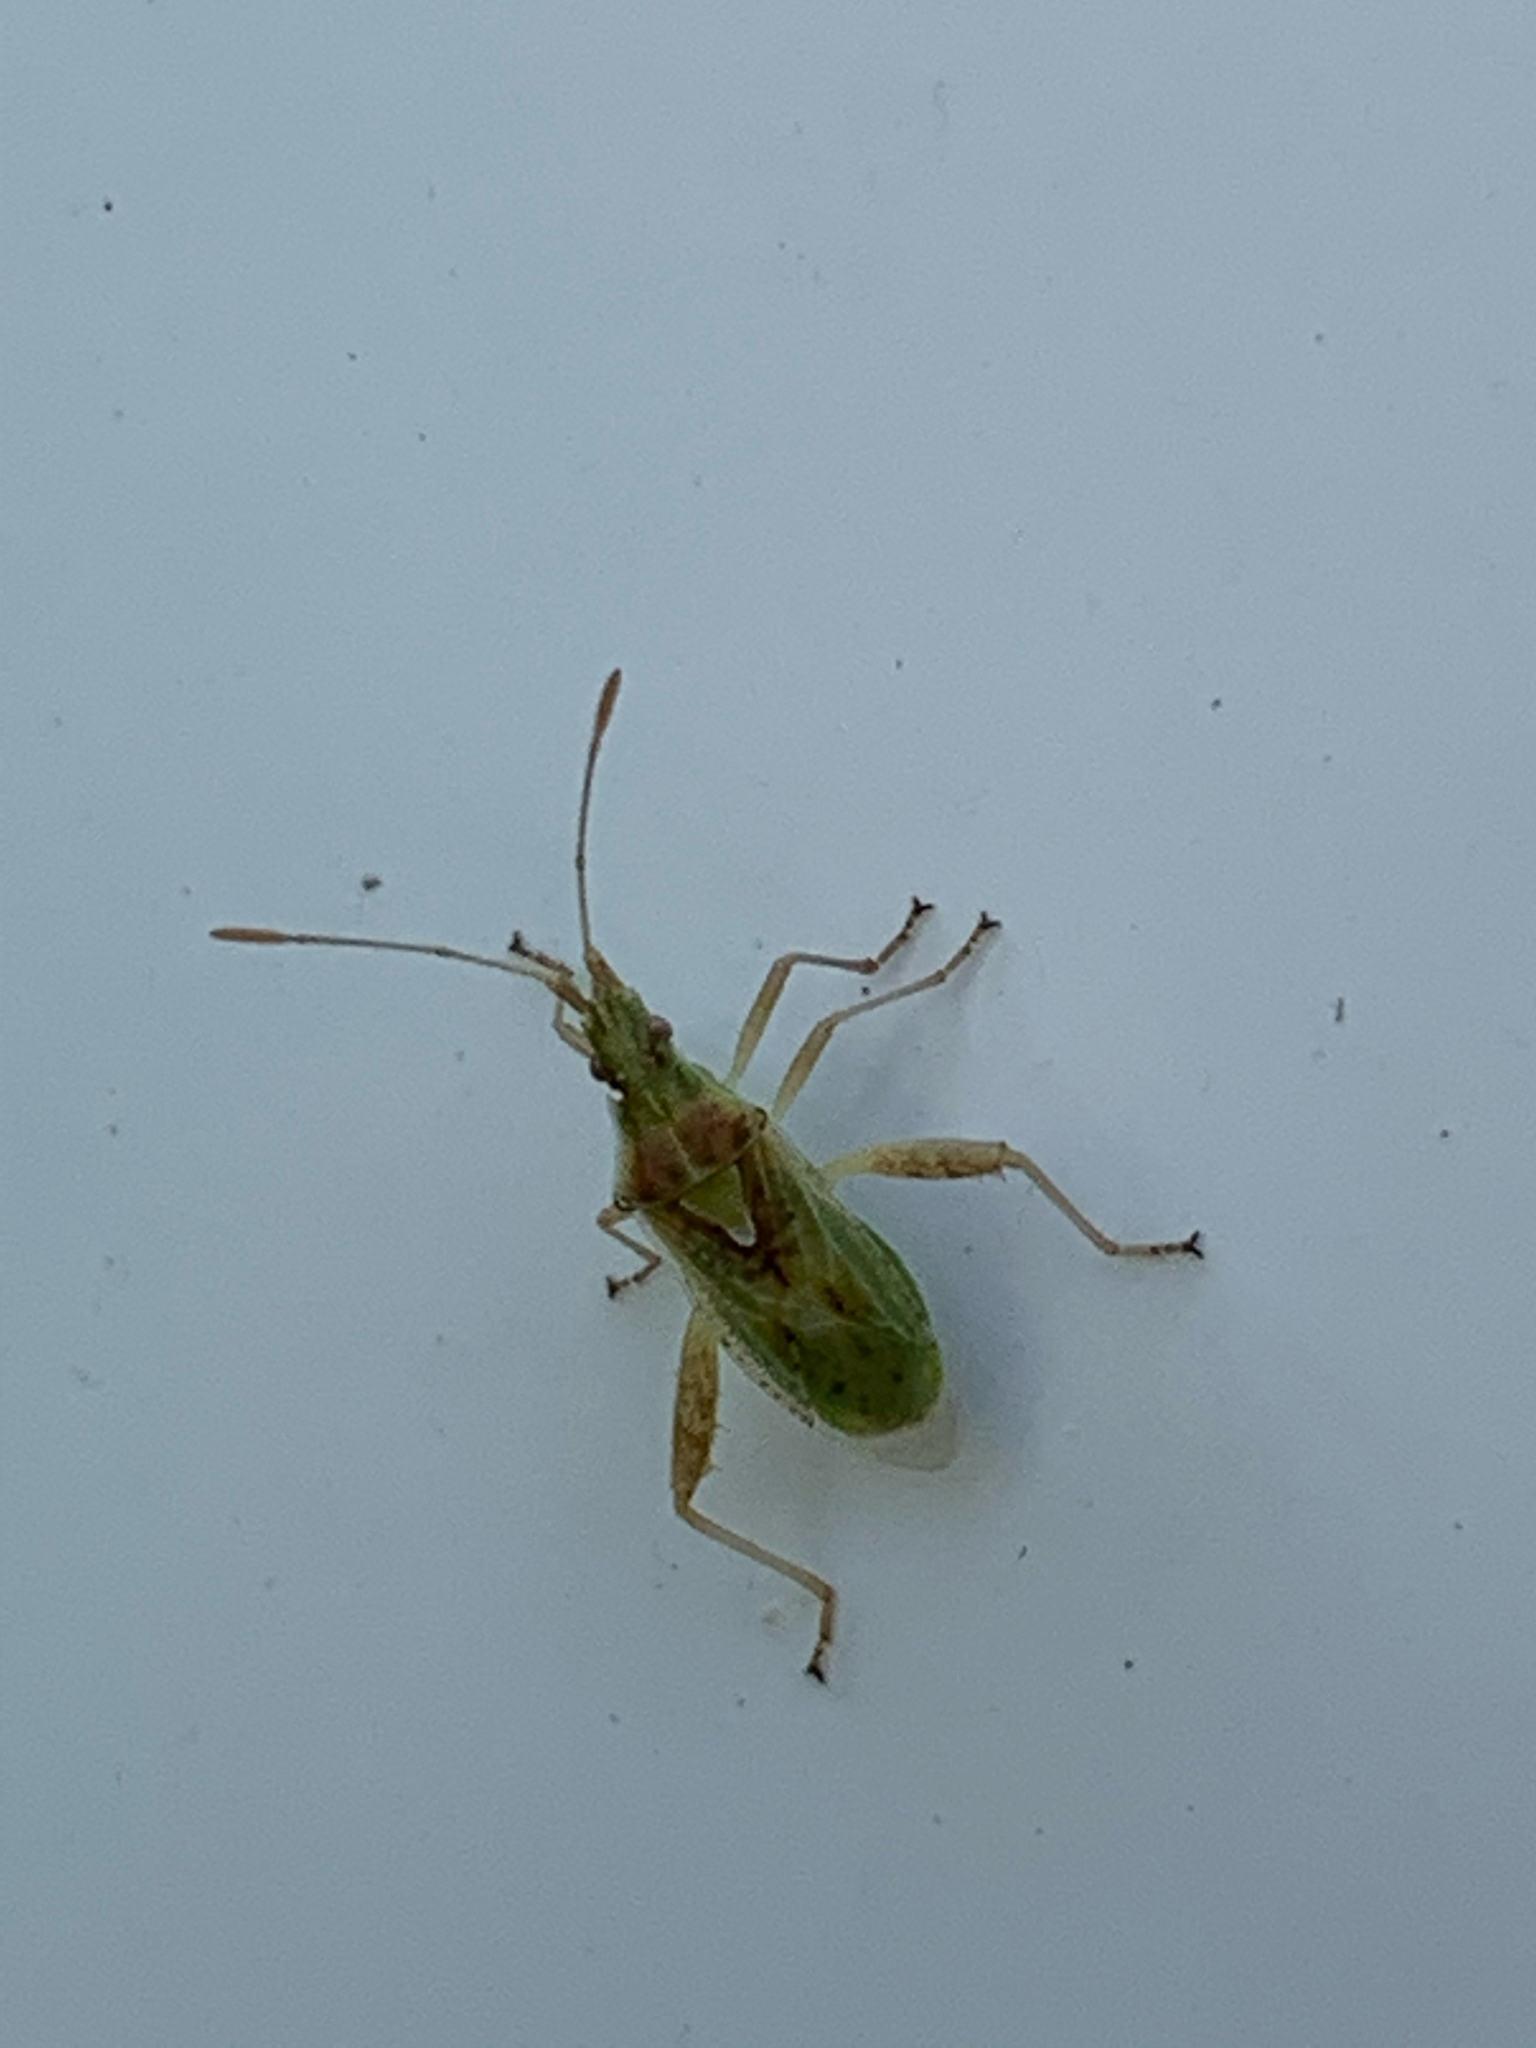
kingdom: Animalia
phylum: Arthropoda
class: Insecta
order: Hemiptera
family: Rhopalidae
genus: Harmostes
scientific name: Harmostes reflexulus
